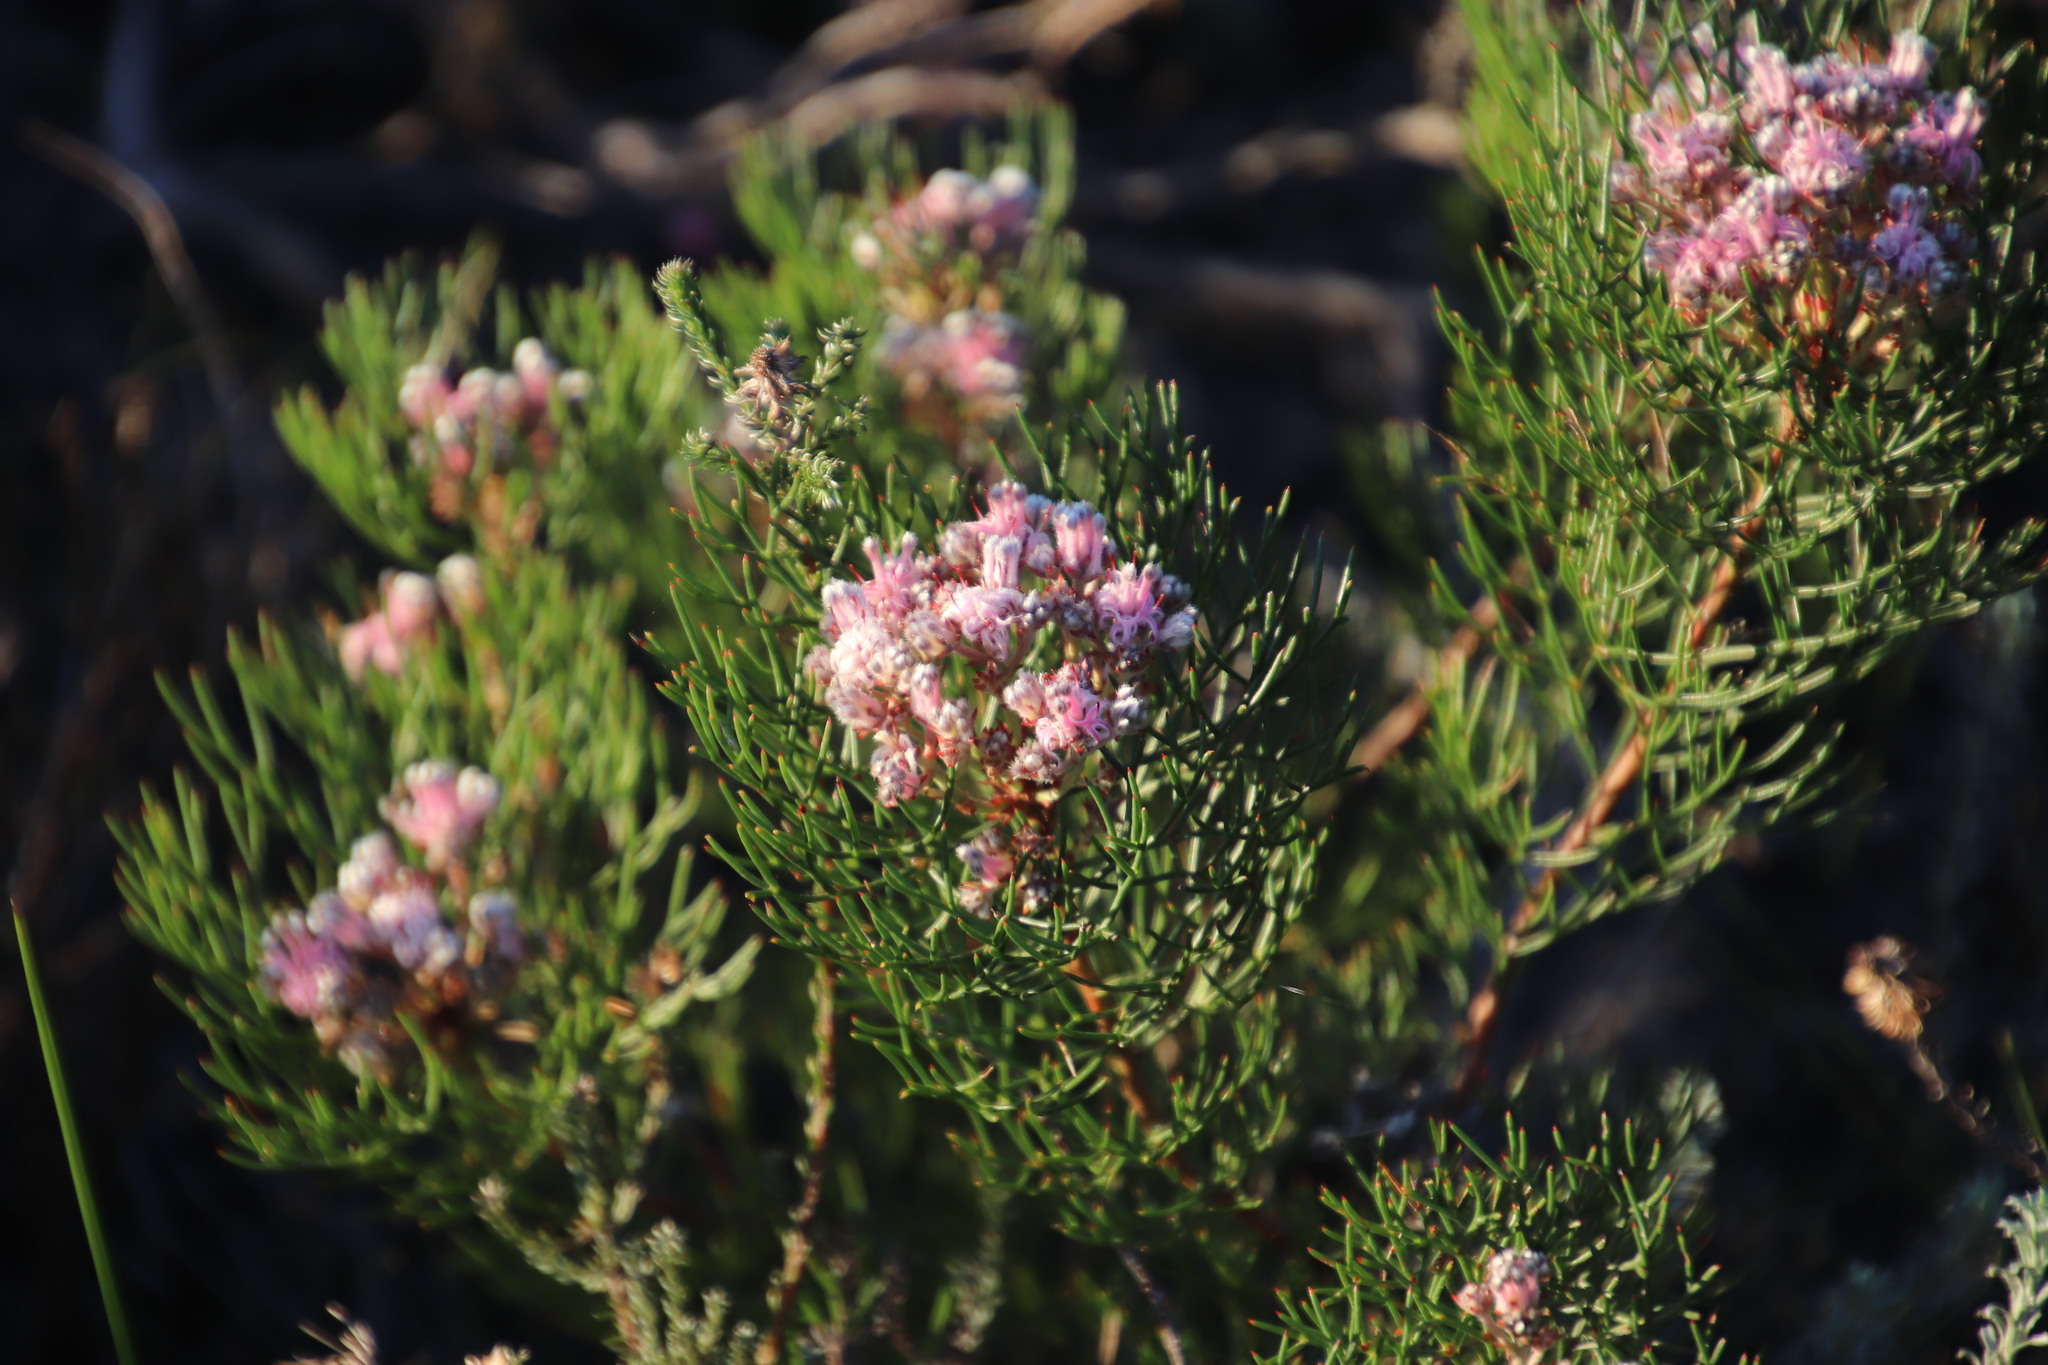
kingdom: Plantae
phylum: Tracheophyta
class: Magnoliopsida
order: Proteales
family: Proteaceae
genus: Serruria
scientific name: Serruria fasciflora
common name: Common pin spiderhead
